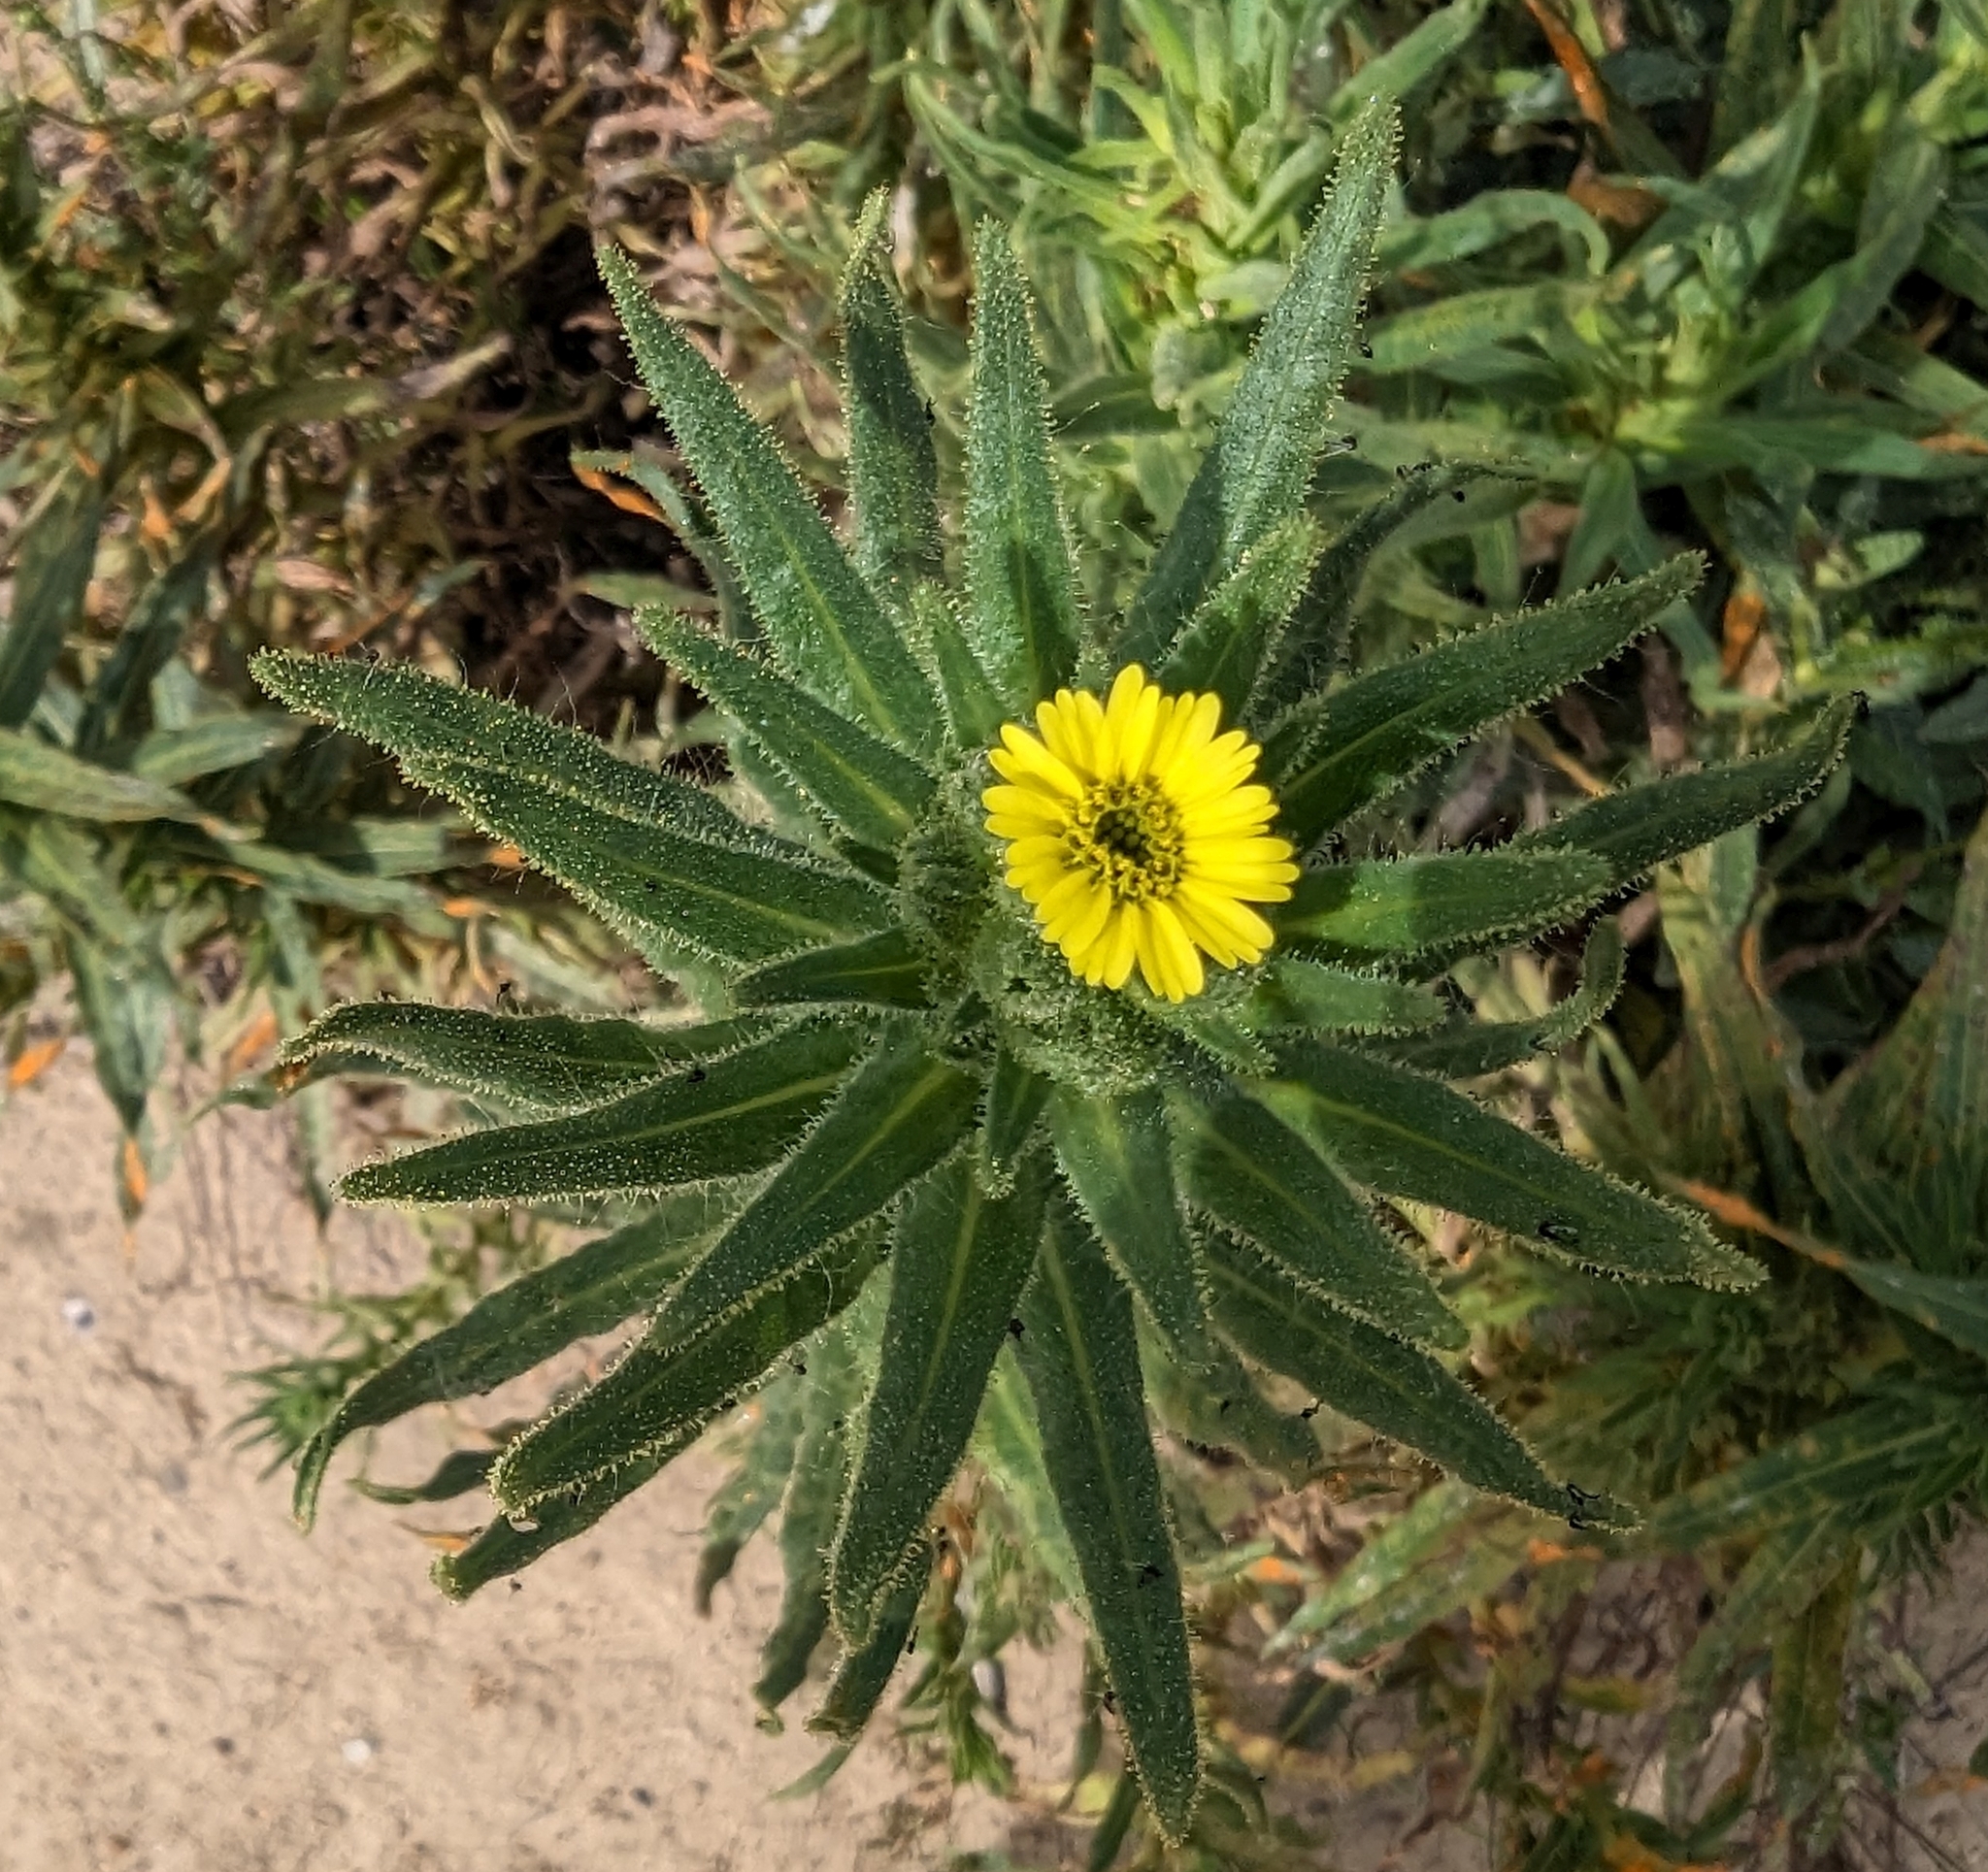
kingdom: Plantae
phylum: Tracheophyta
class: Magnoliopsida
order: Asterales
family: Asteraceae
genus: Madia
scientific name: Madia sativa
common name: Coast tarweed
